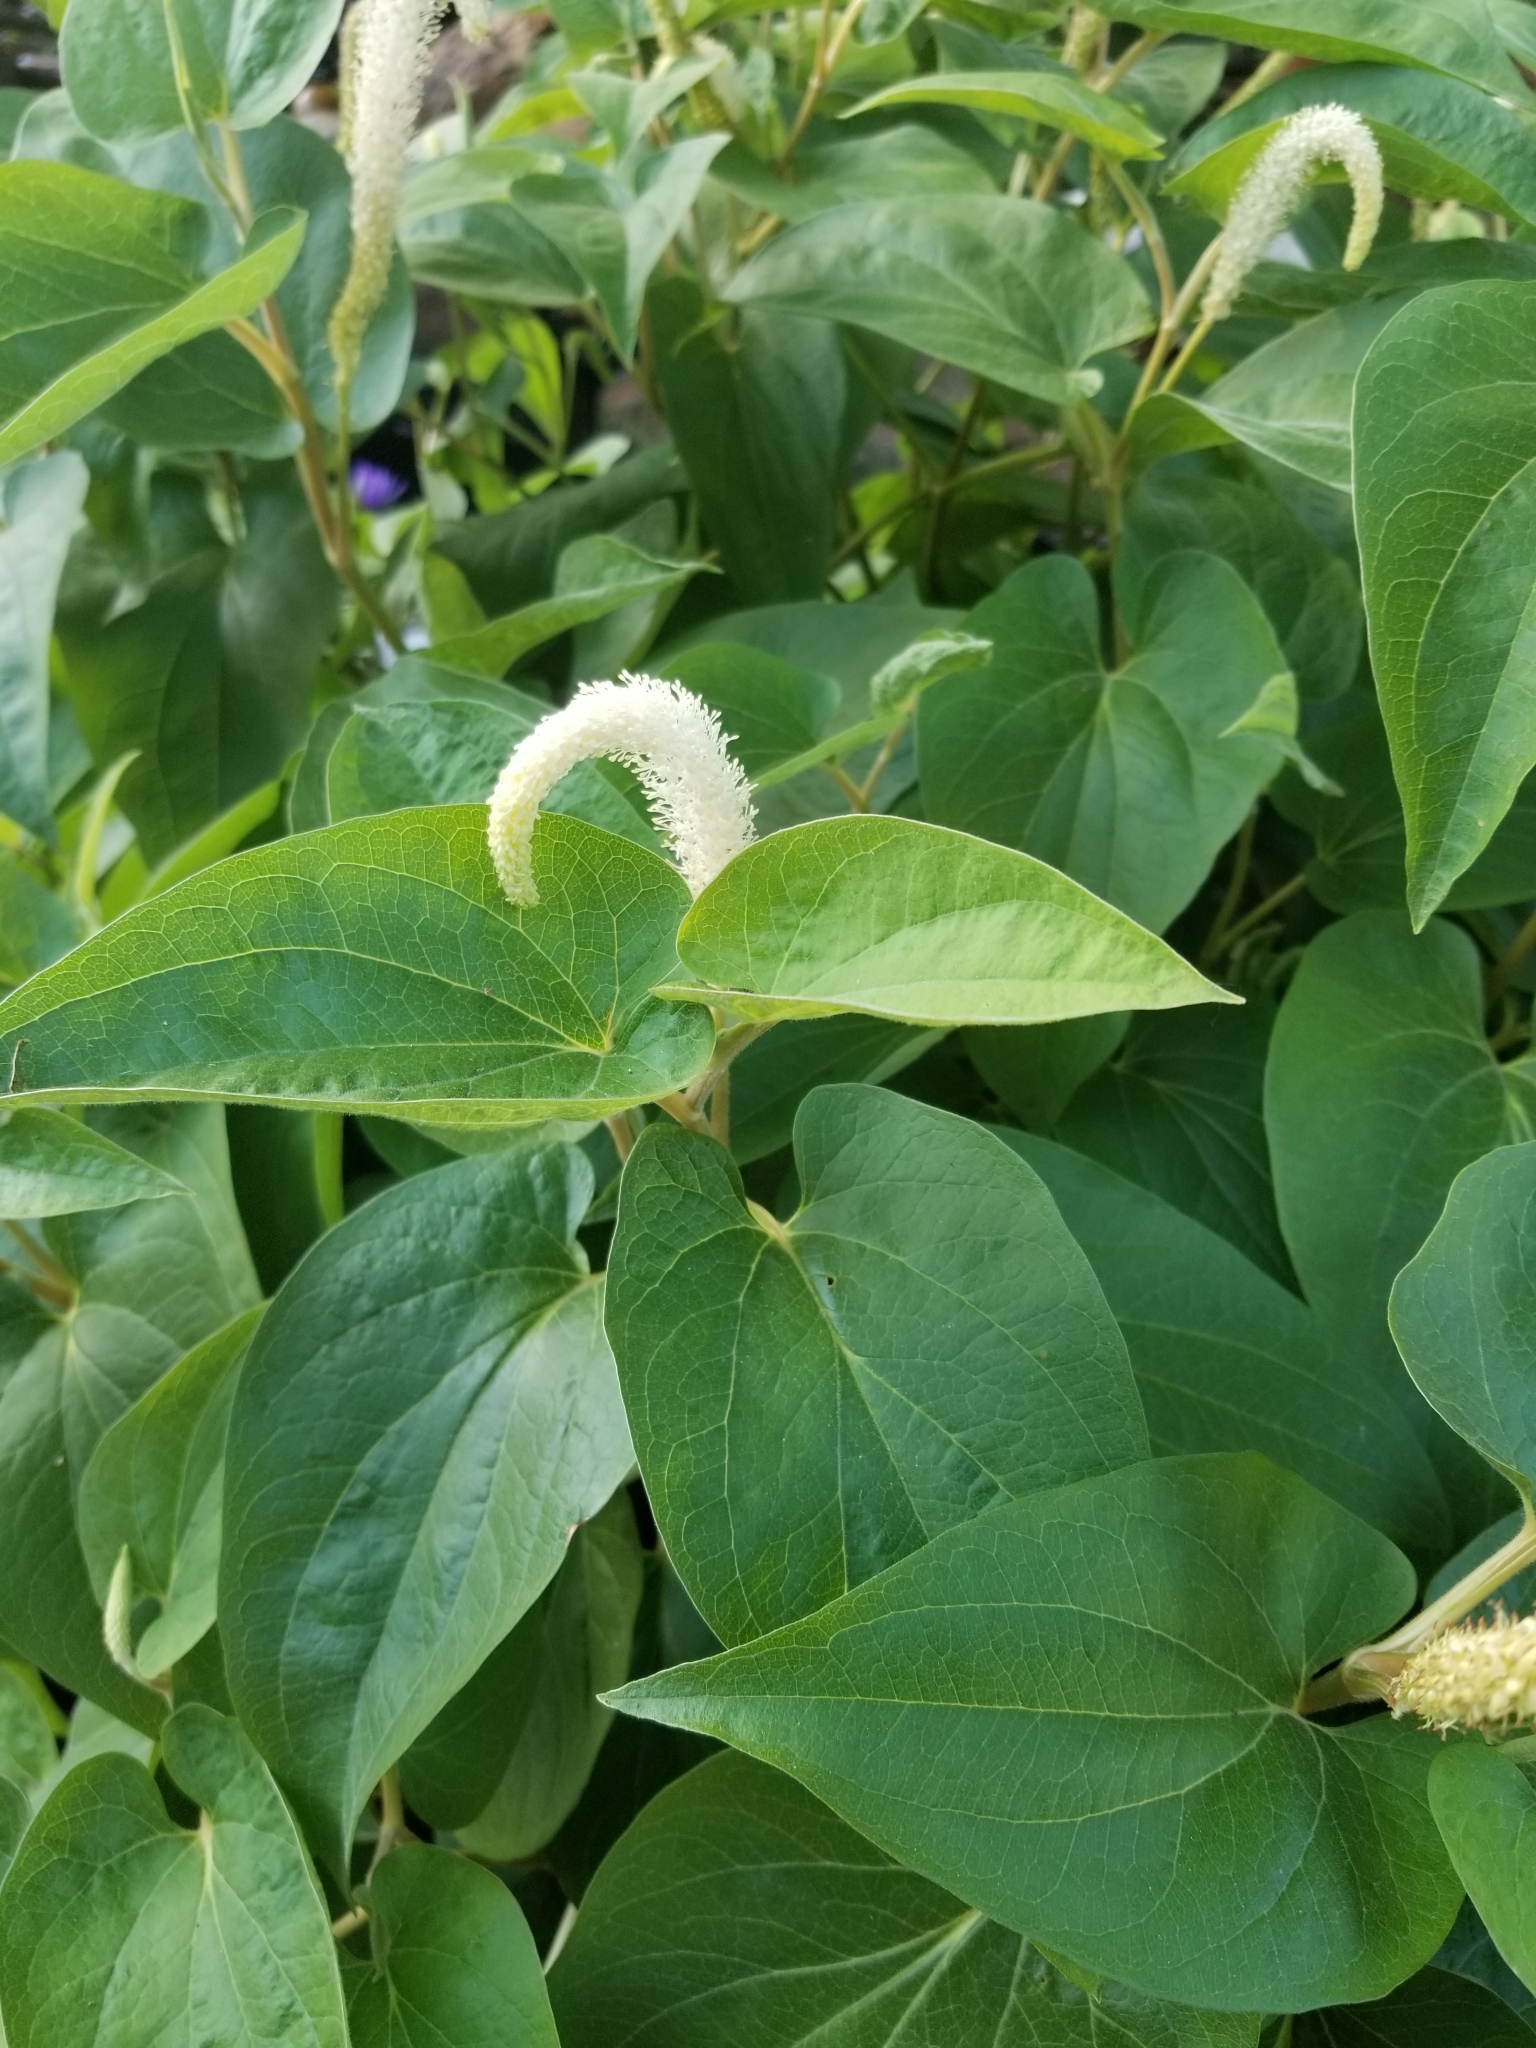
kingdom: Plantae
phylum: Tracheophyta
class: Magnoliopsida
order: Piperales
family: Saururaceae
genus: Saururus
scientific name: Saururus cernuus
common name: Lizard's-tail
